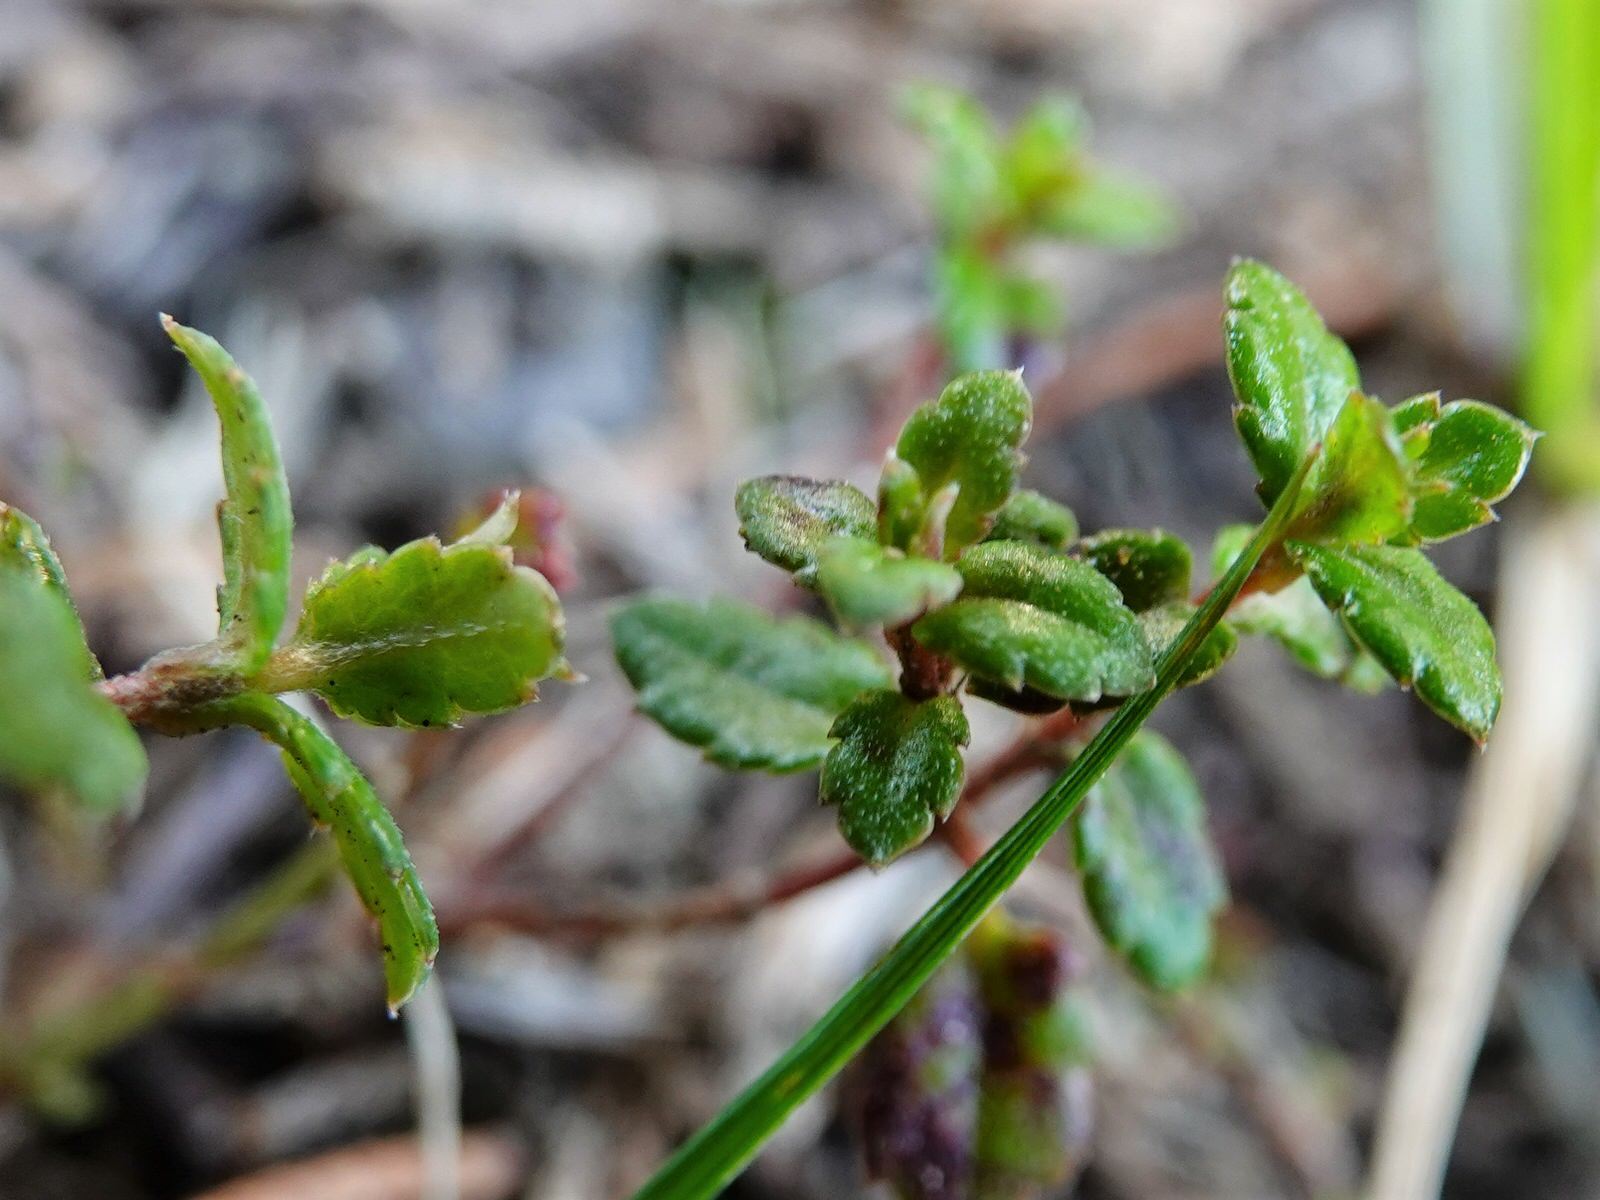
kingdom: Plantae
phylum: Tracheophyta
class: Magnoliopsida
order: Saxifragales
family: Haloragaceae
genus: Gonocarpus
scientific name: Gonocarpus incanus
